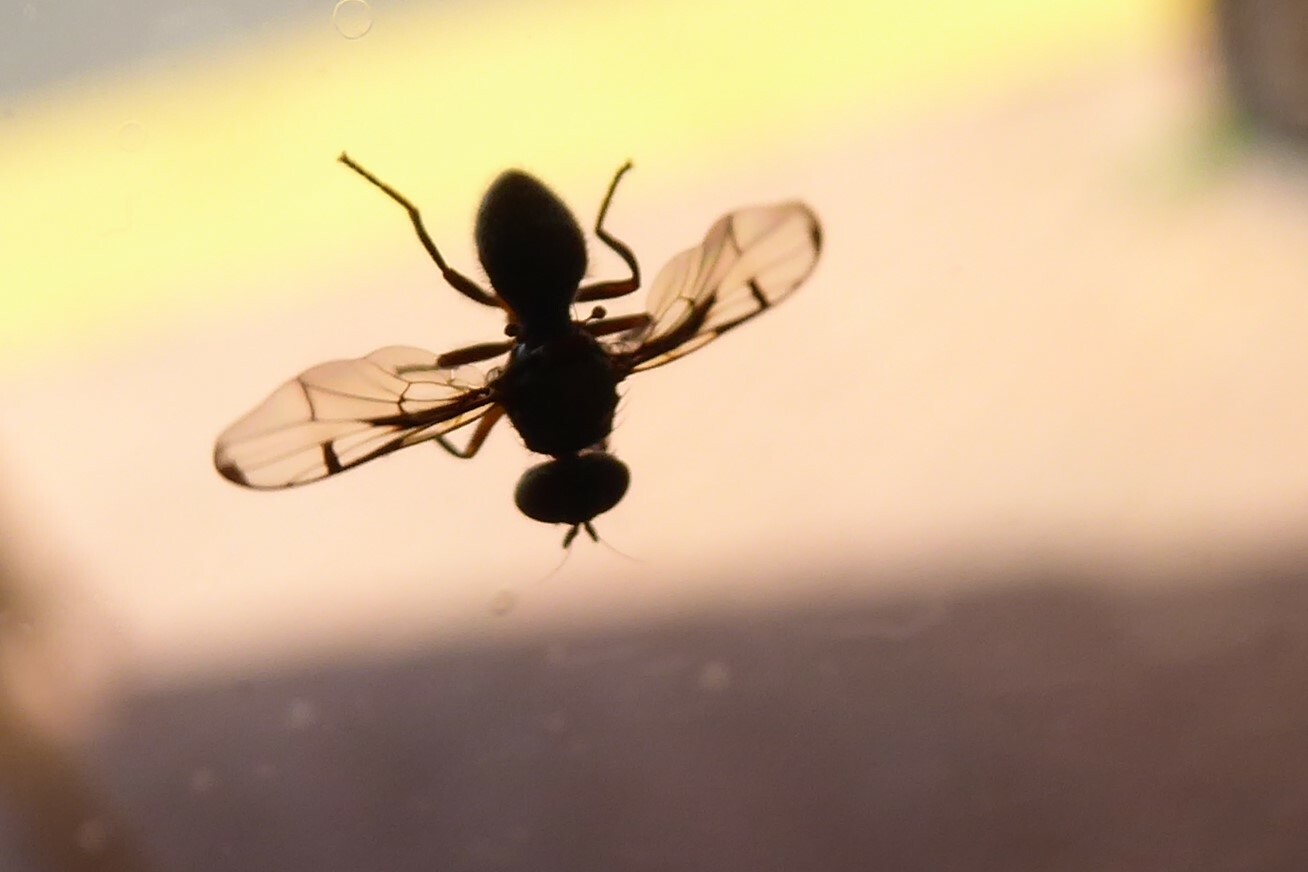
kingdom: Animalia
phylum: Arthropoda
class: Insecta
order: Diptera
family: Platystomatidae
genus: Pogonortalis
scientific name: Pogonortalis doclea
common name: Boatman fly
